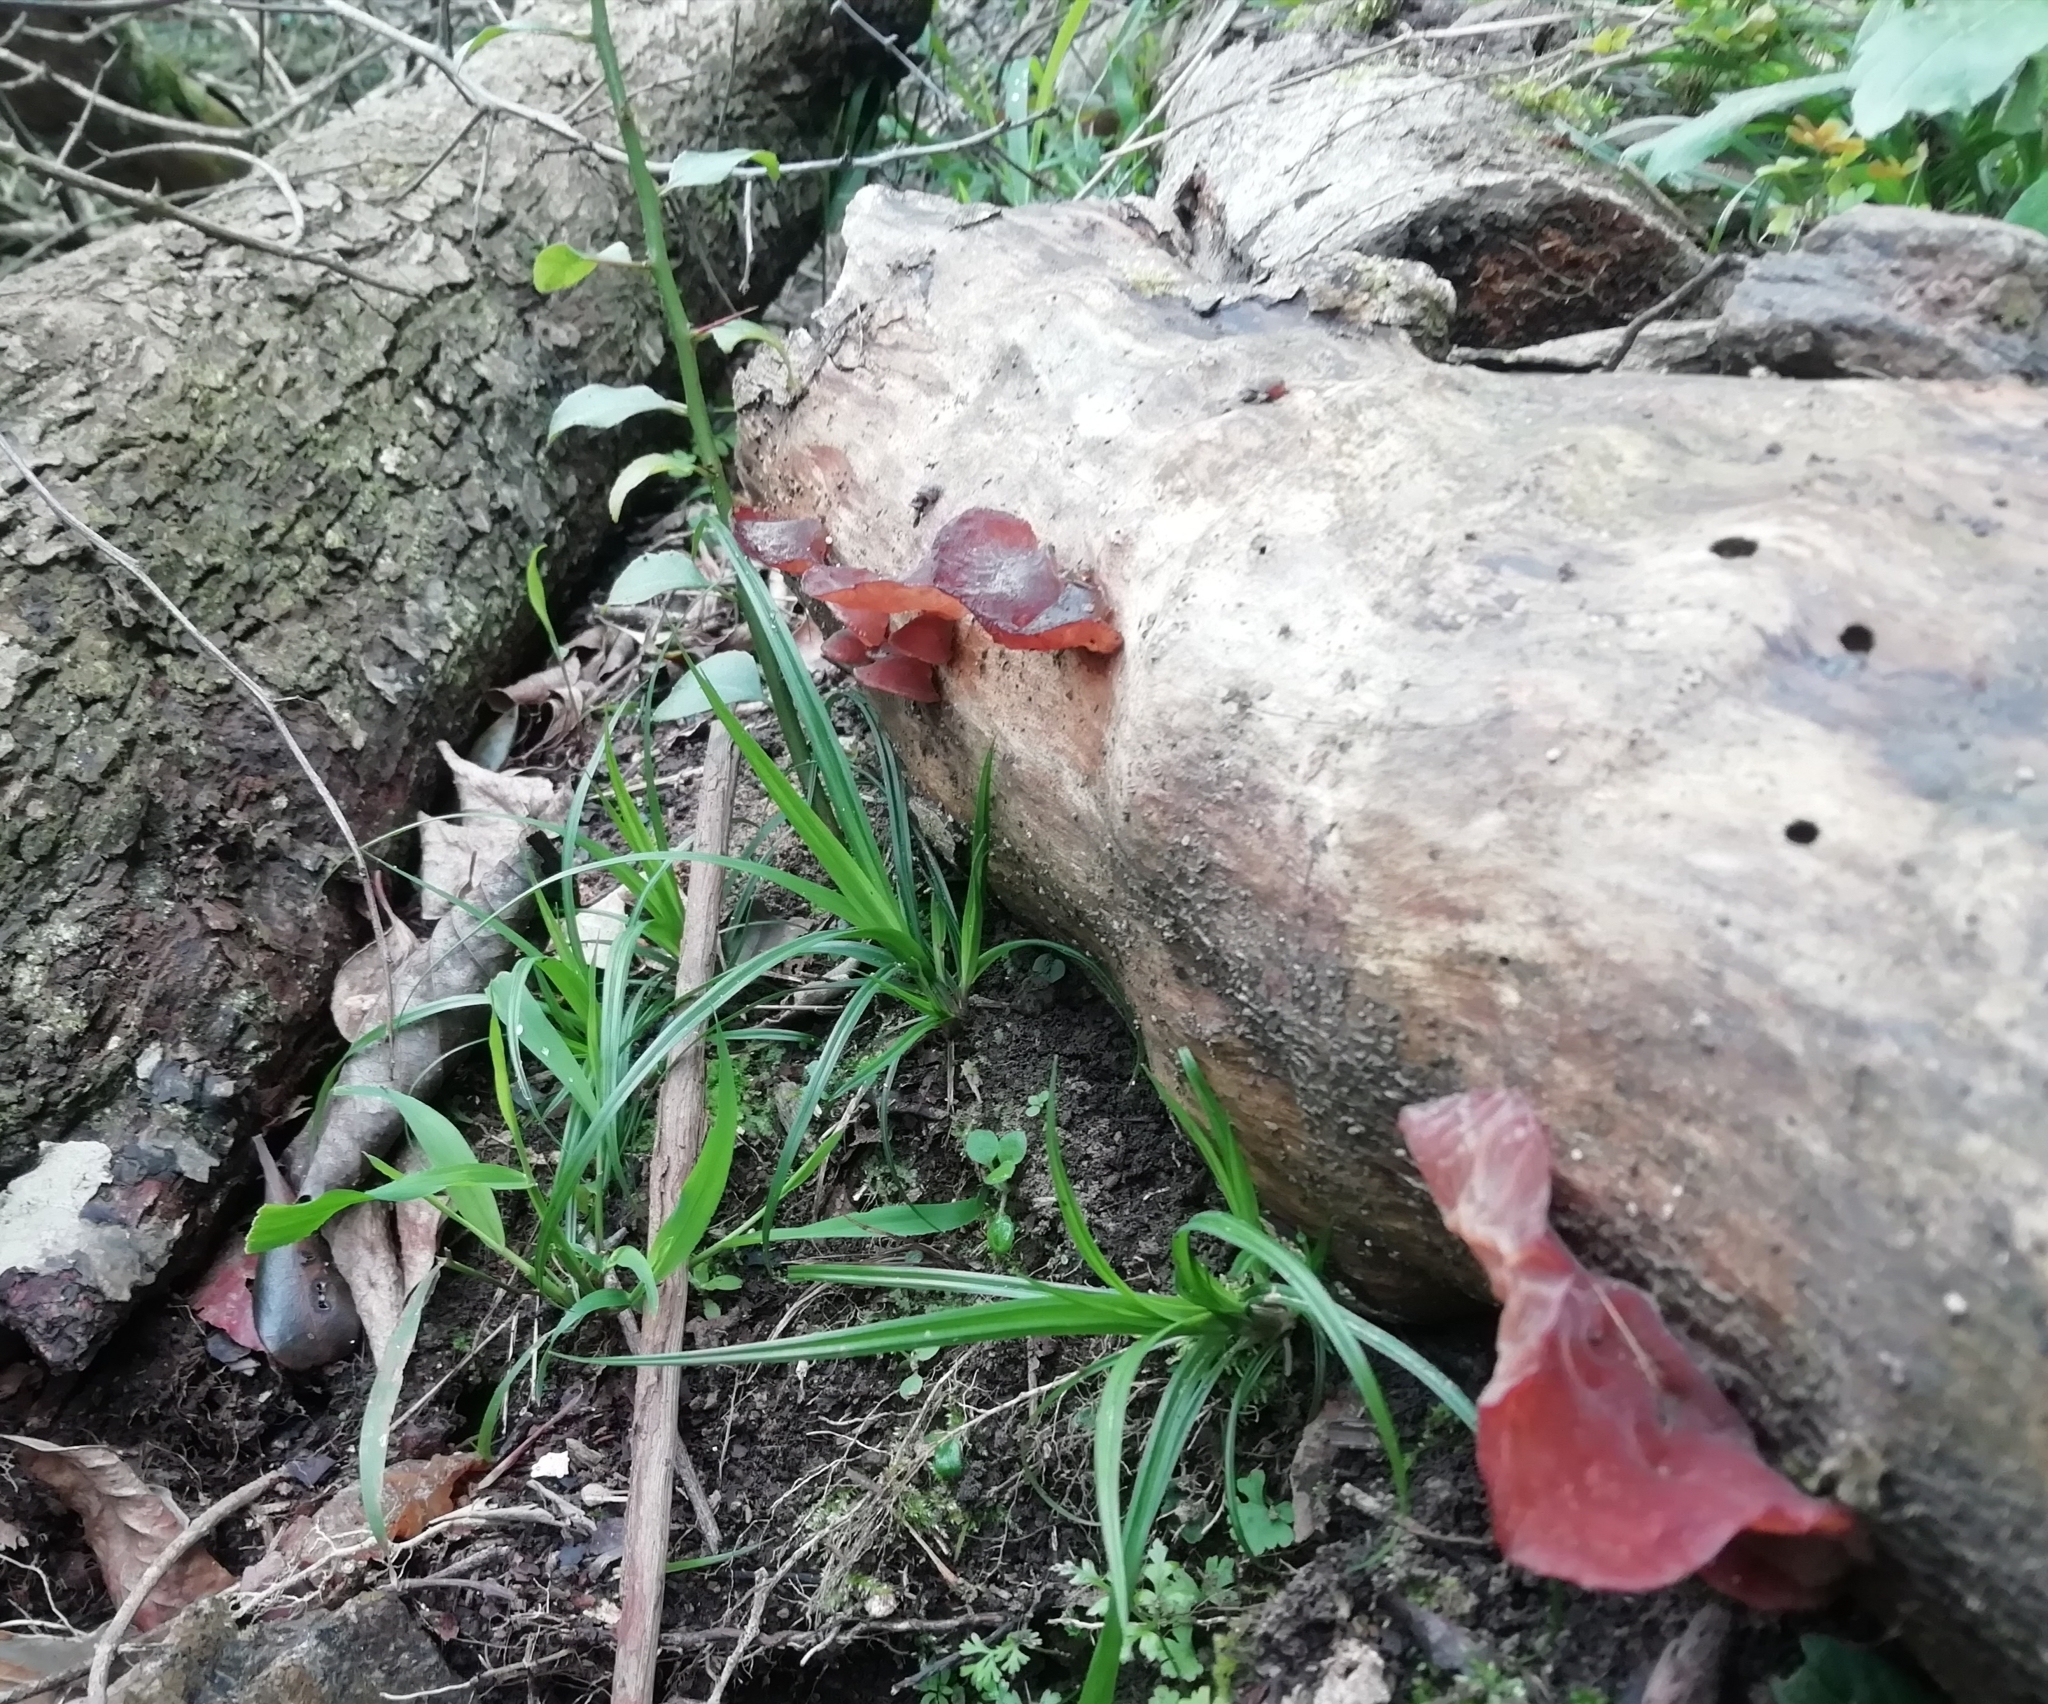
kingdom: Fungi
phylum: Basidiomycota
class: Agaricomycetes
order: Auriculariales
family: Auriculariaceae
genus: Auricularia
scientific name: Auricularia auricula-judae
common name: Jelly ear
